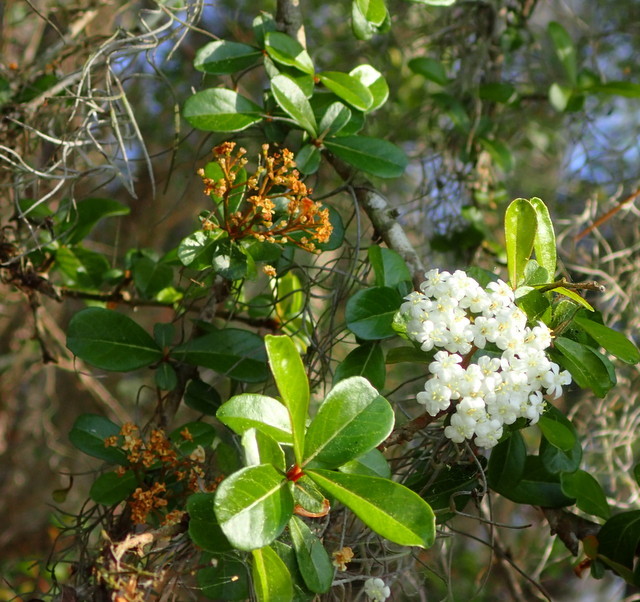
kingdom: Plantae
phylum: Tracheophyta
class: Magnoliopsida
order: Dipsacales
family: Viburnaceae
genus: Viburnum
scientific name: Viburnum obovatum
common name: Walter's viburnum
